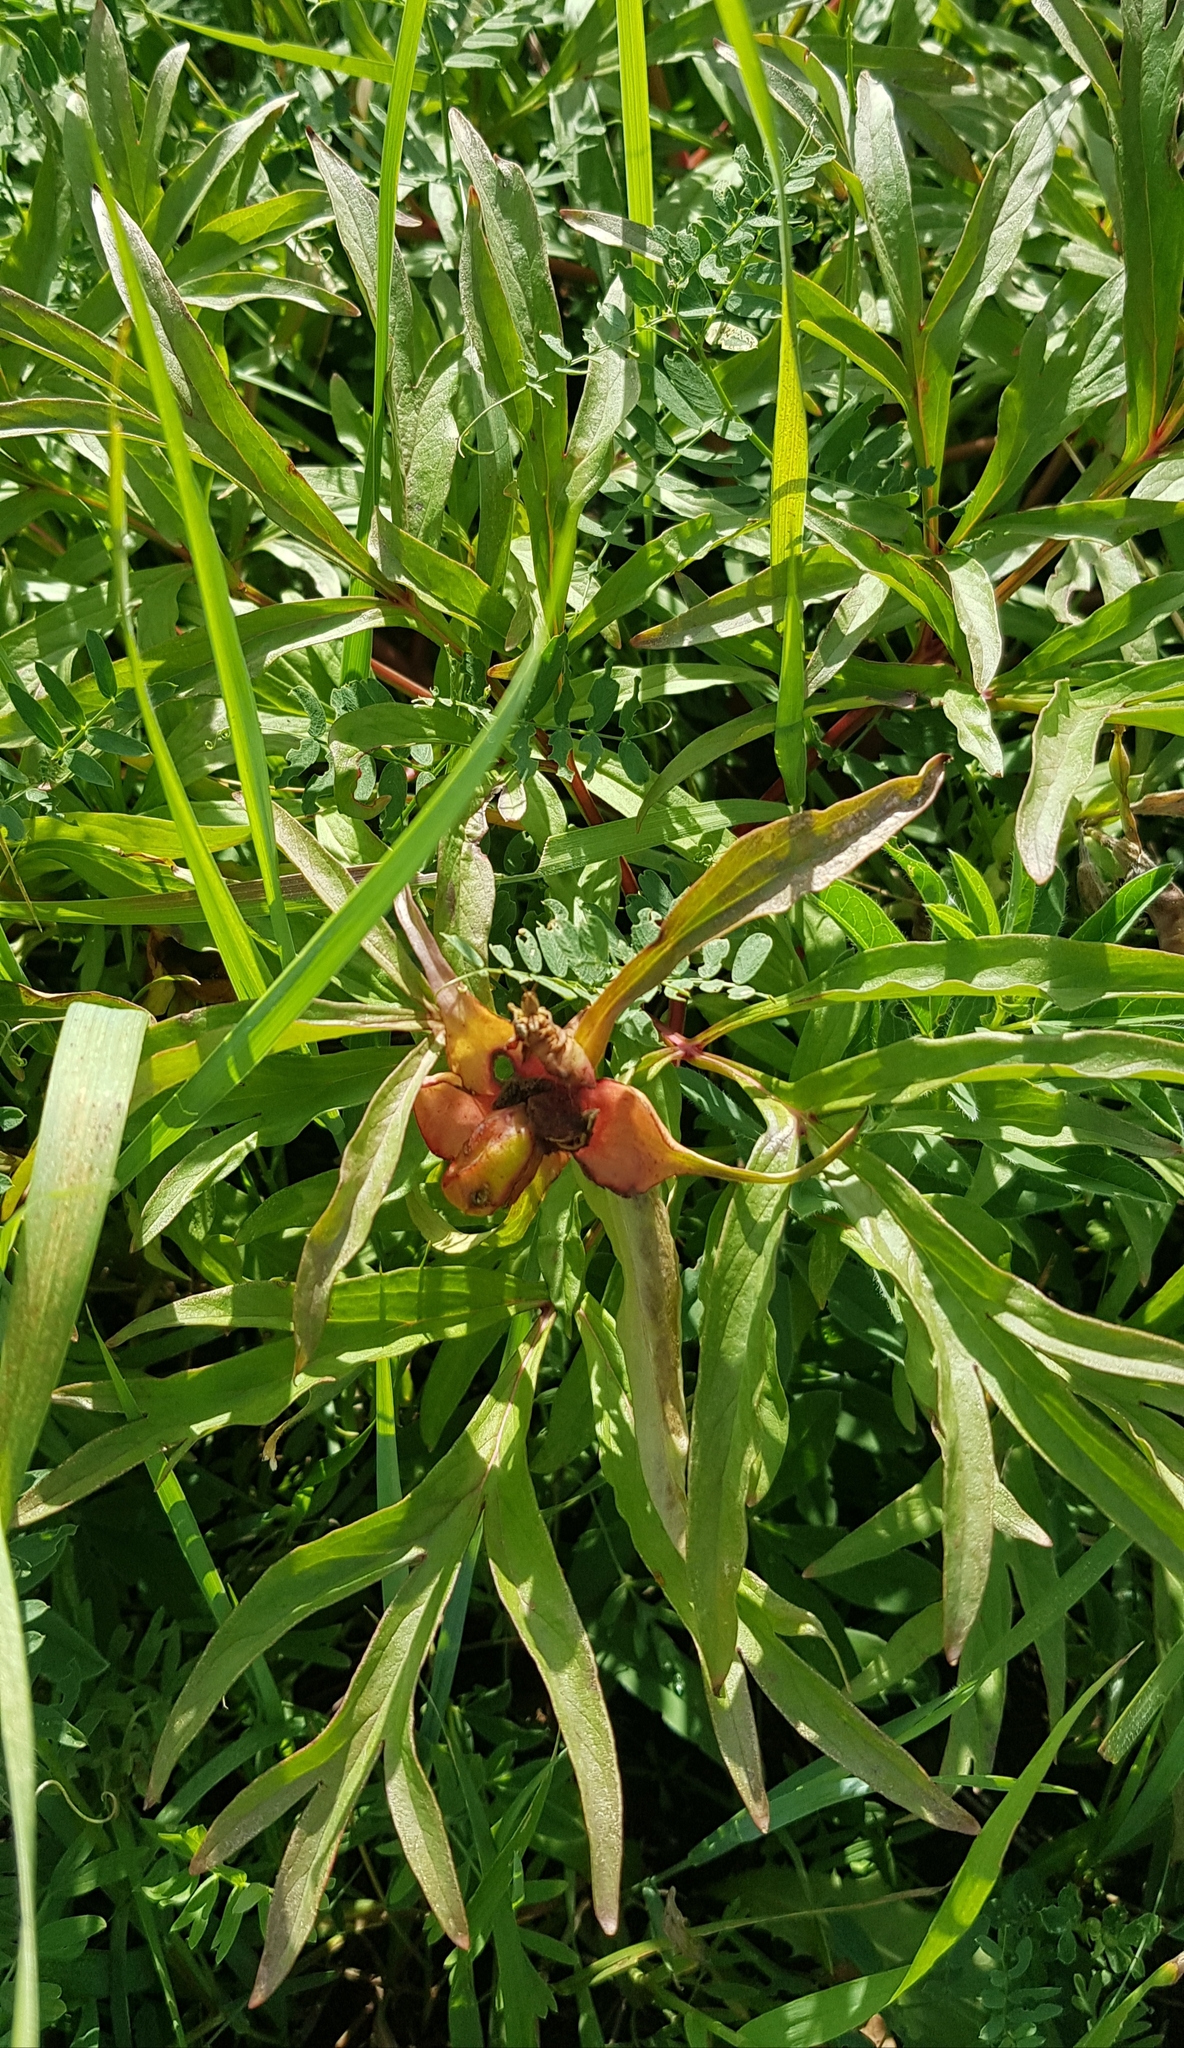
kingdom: Plantae
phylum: Tracheophyta
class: Magnoliopsida
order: Saxifragales
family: Paeoniaceae
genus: Paeonia
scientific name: Paeonia anomala
